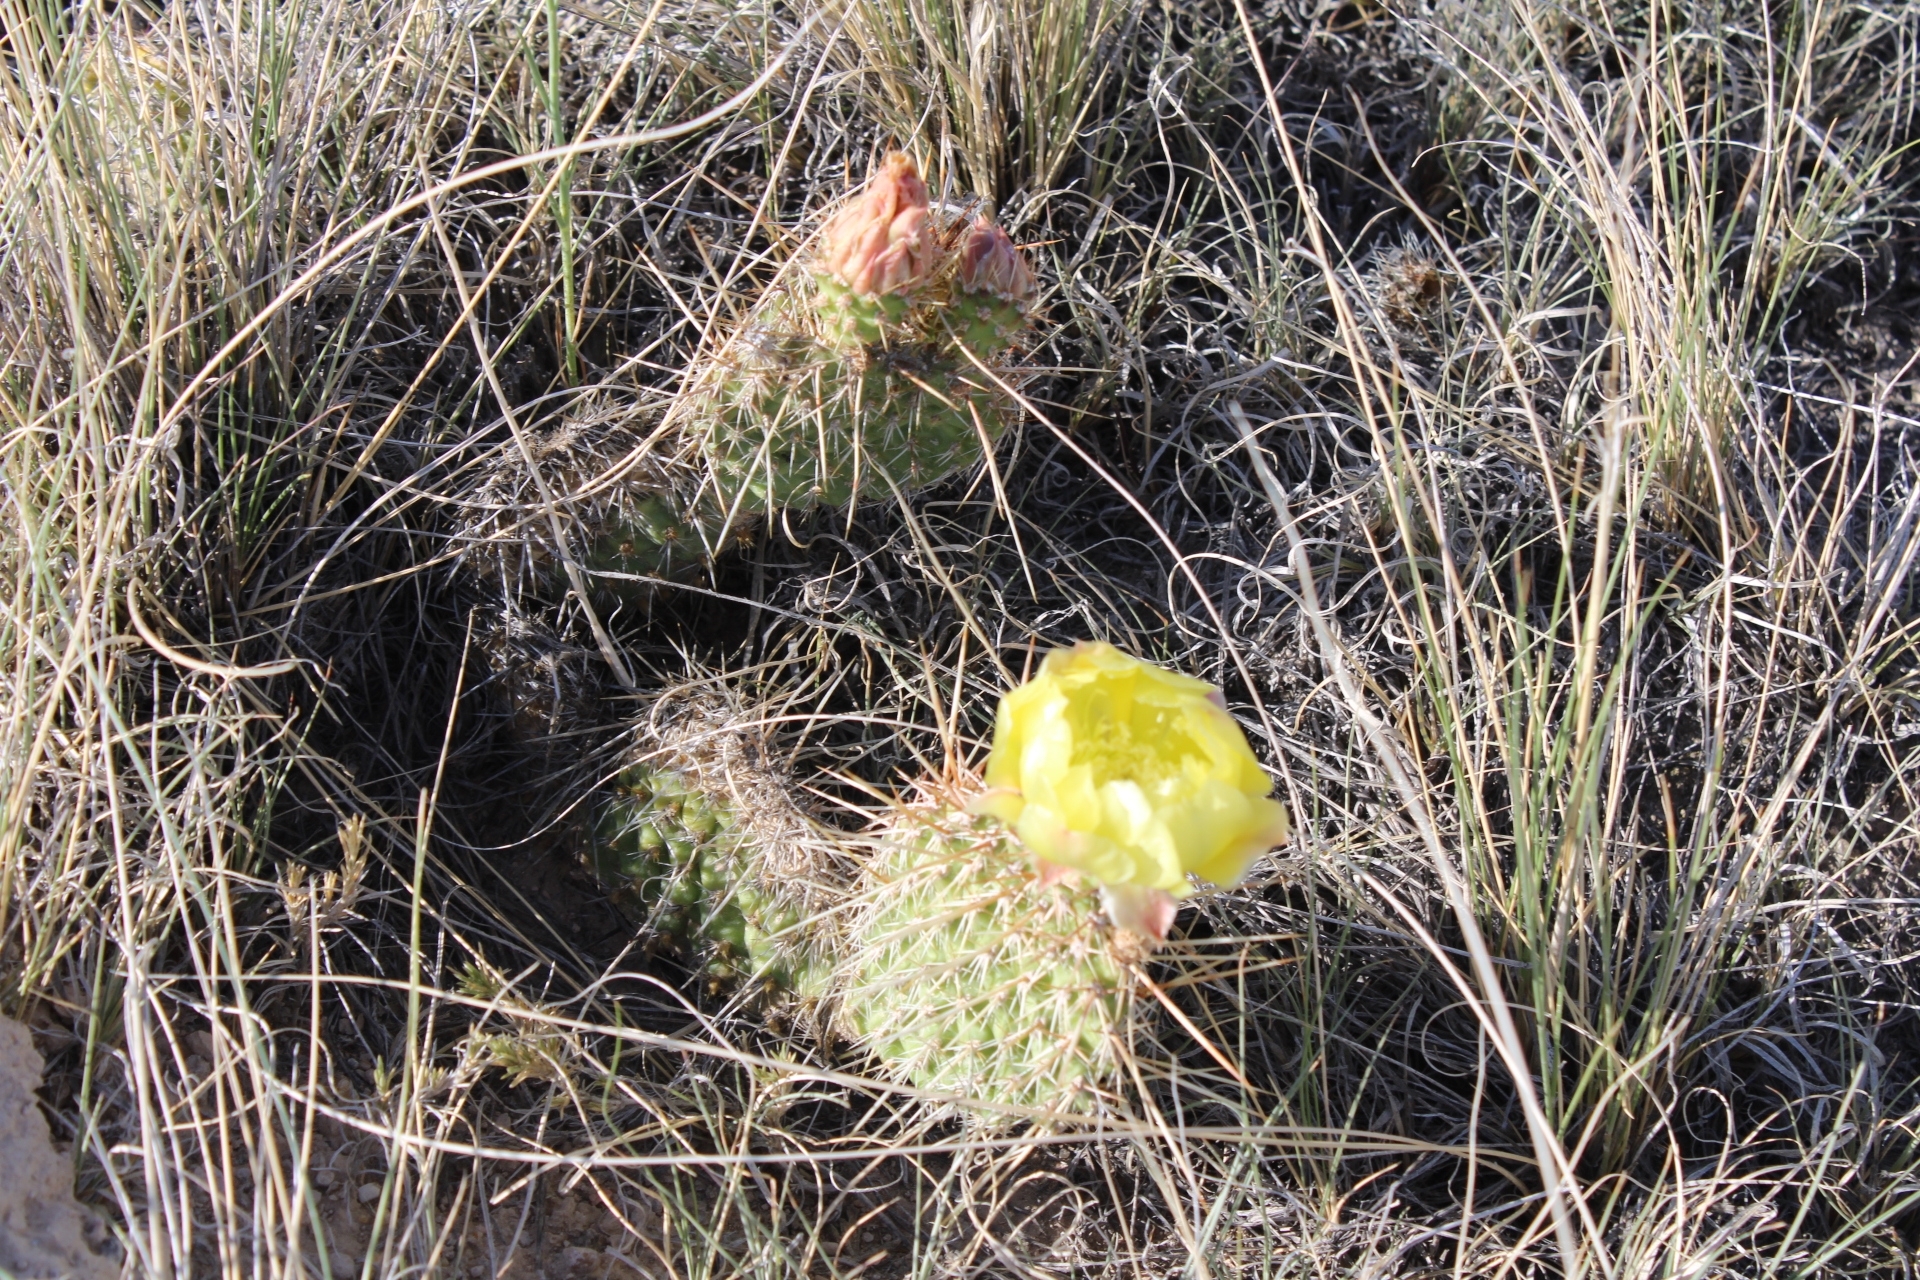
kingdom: Plantae
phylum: Tracheophyta
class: Magnoliopsida
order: Caryophyllales
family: Cactaceae
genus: Opuntia
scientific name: Opuntia polyacantha
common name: Plains prickly-pear
